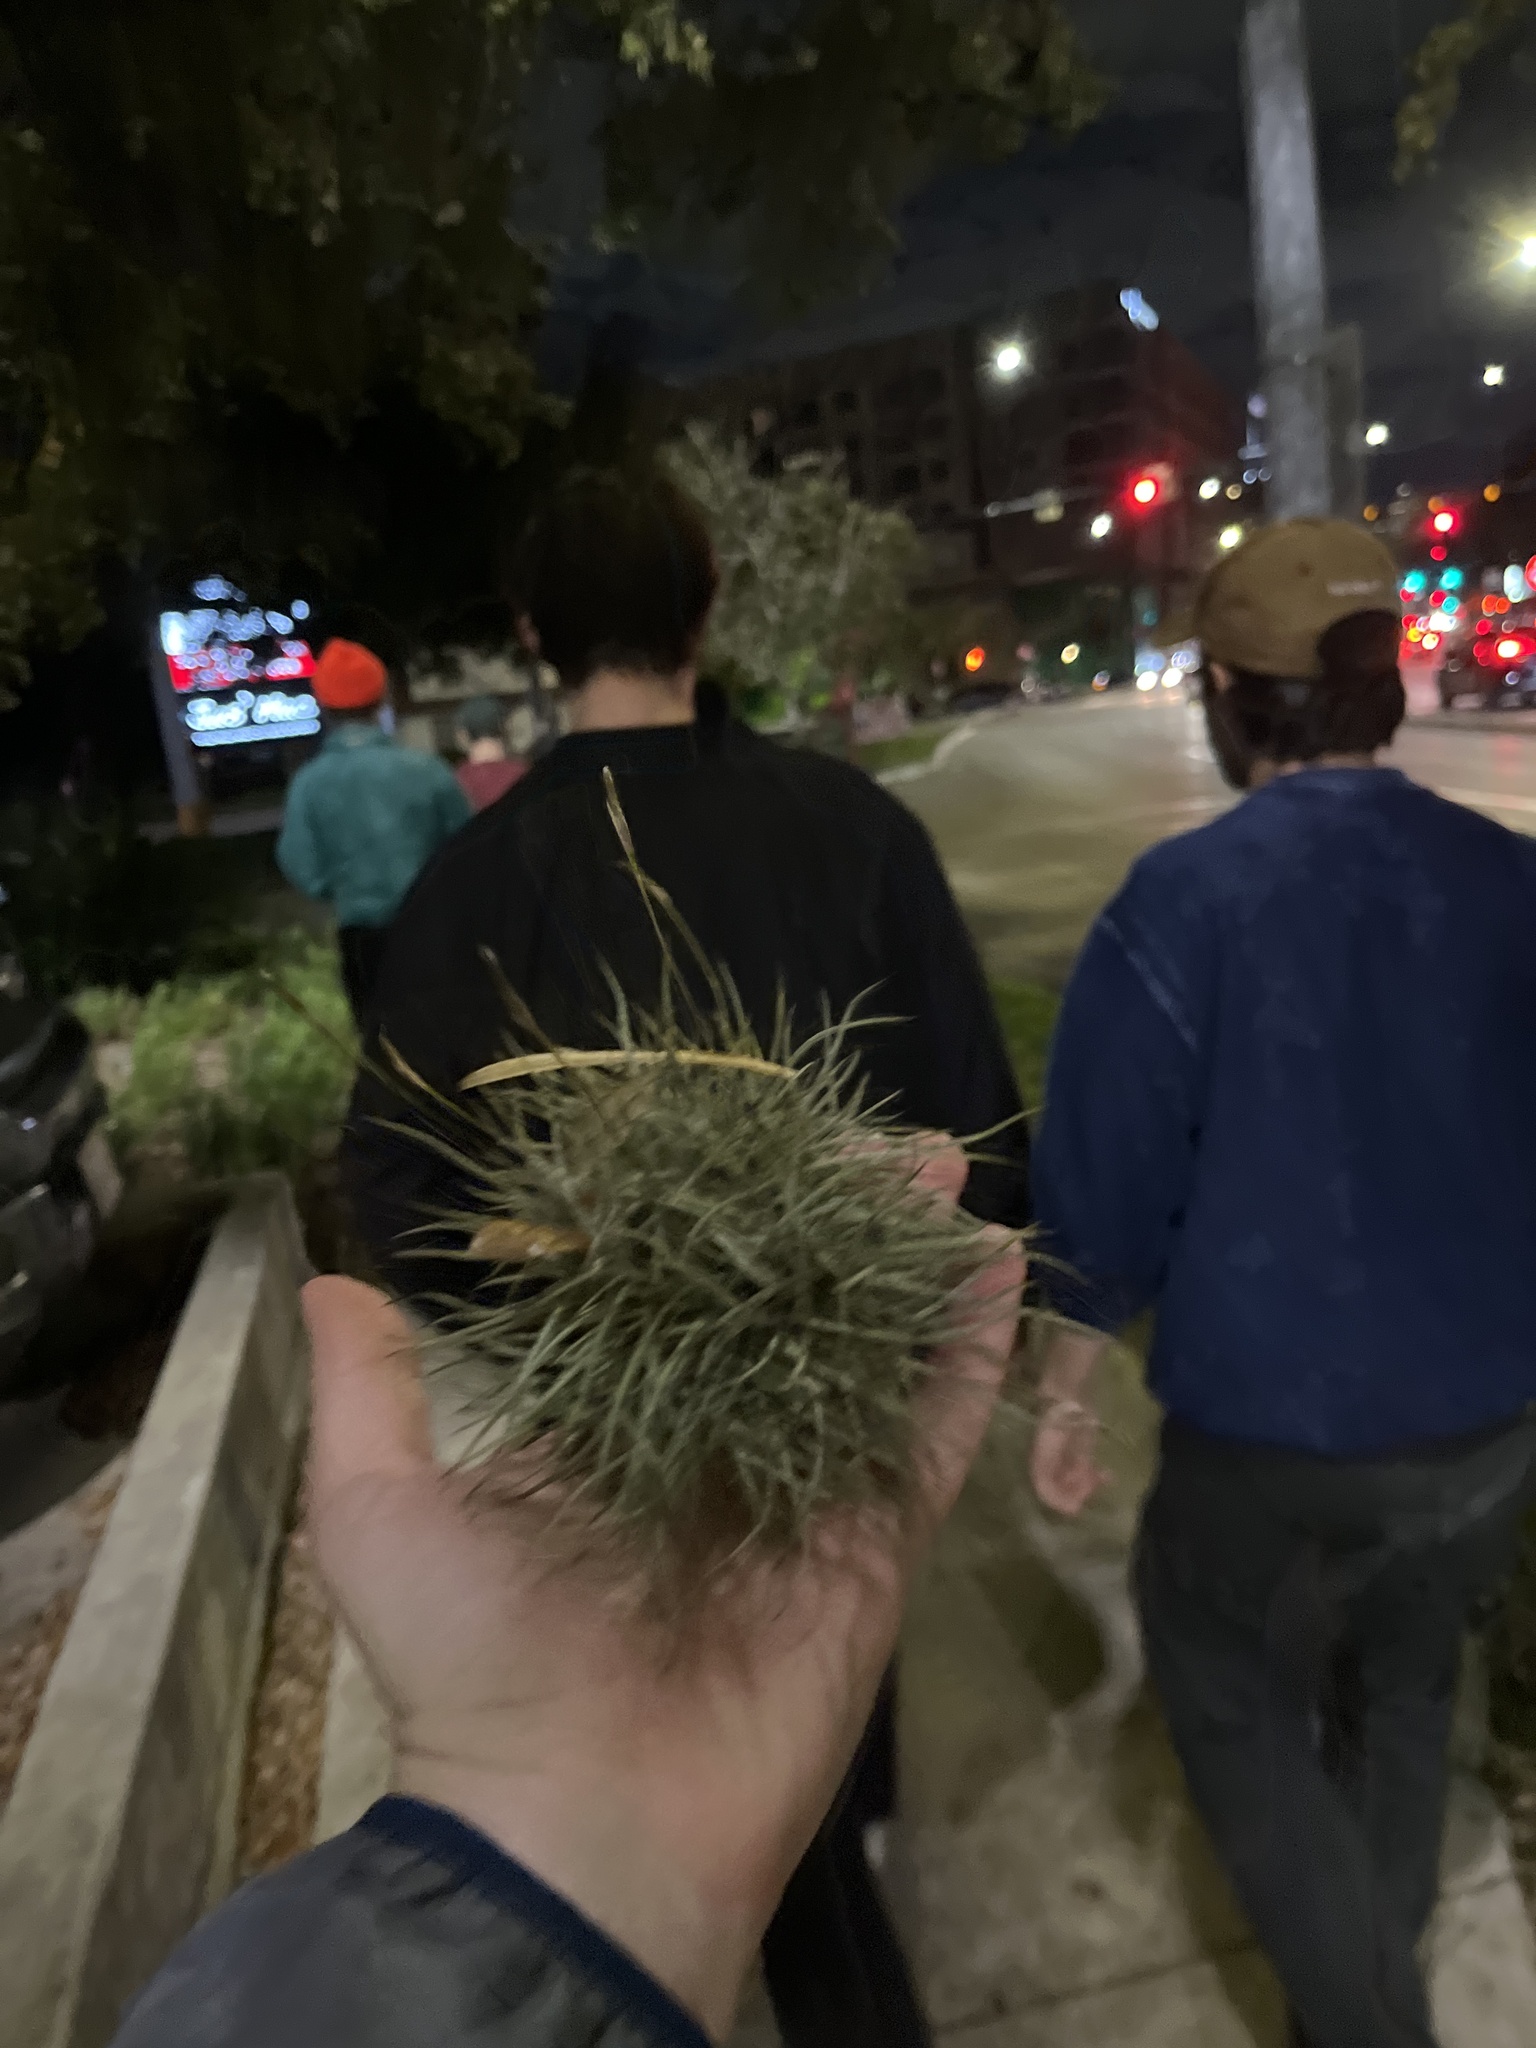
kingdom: Plantae
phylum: Tracheophyta
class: Liliopsida
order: Poales
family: Bromeliaceae
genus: Tillandsia
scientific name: Tillandsia recurvata
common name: Small ballmoss
